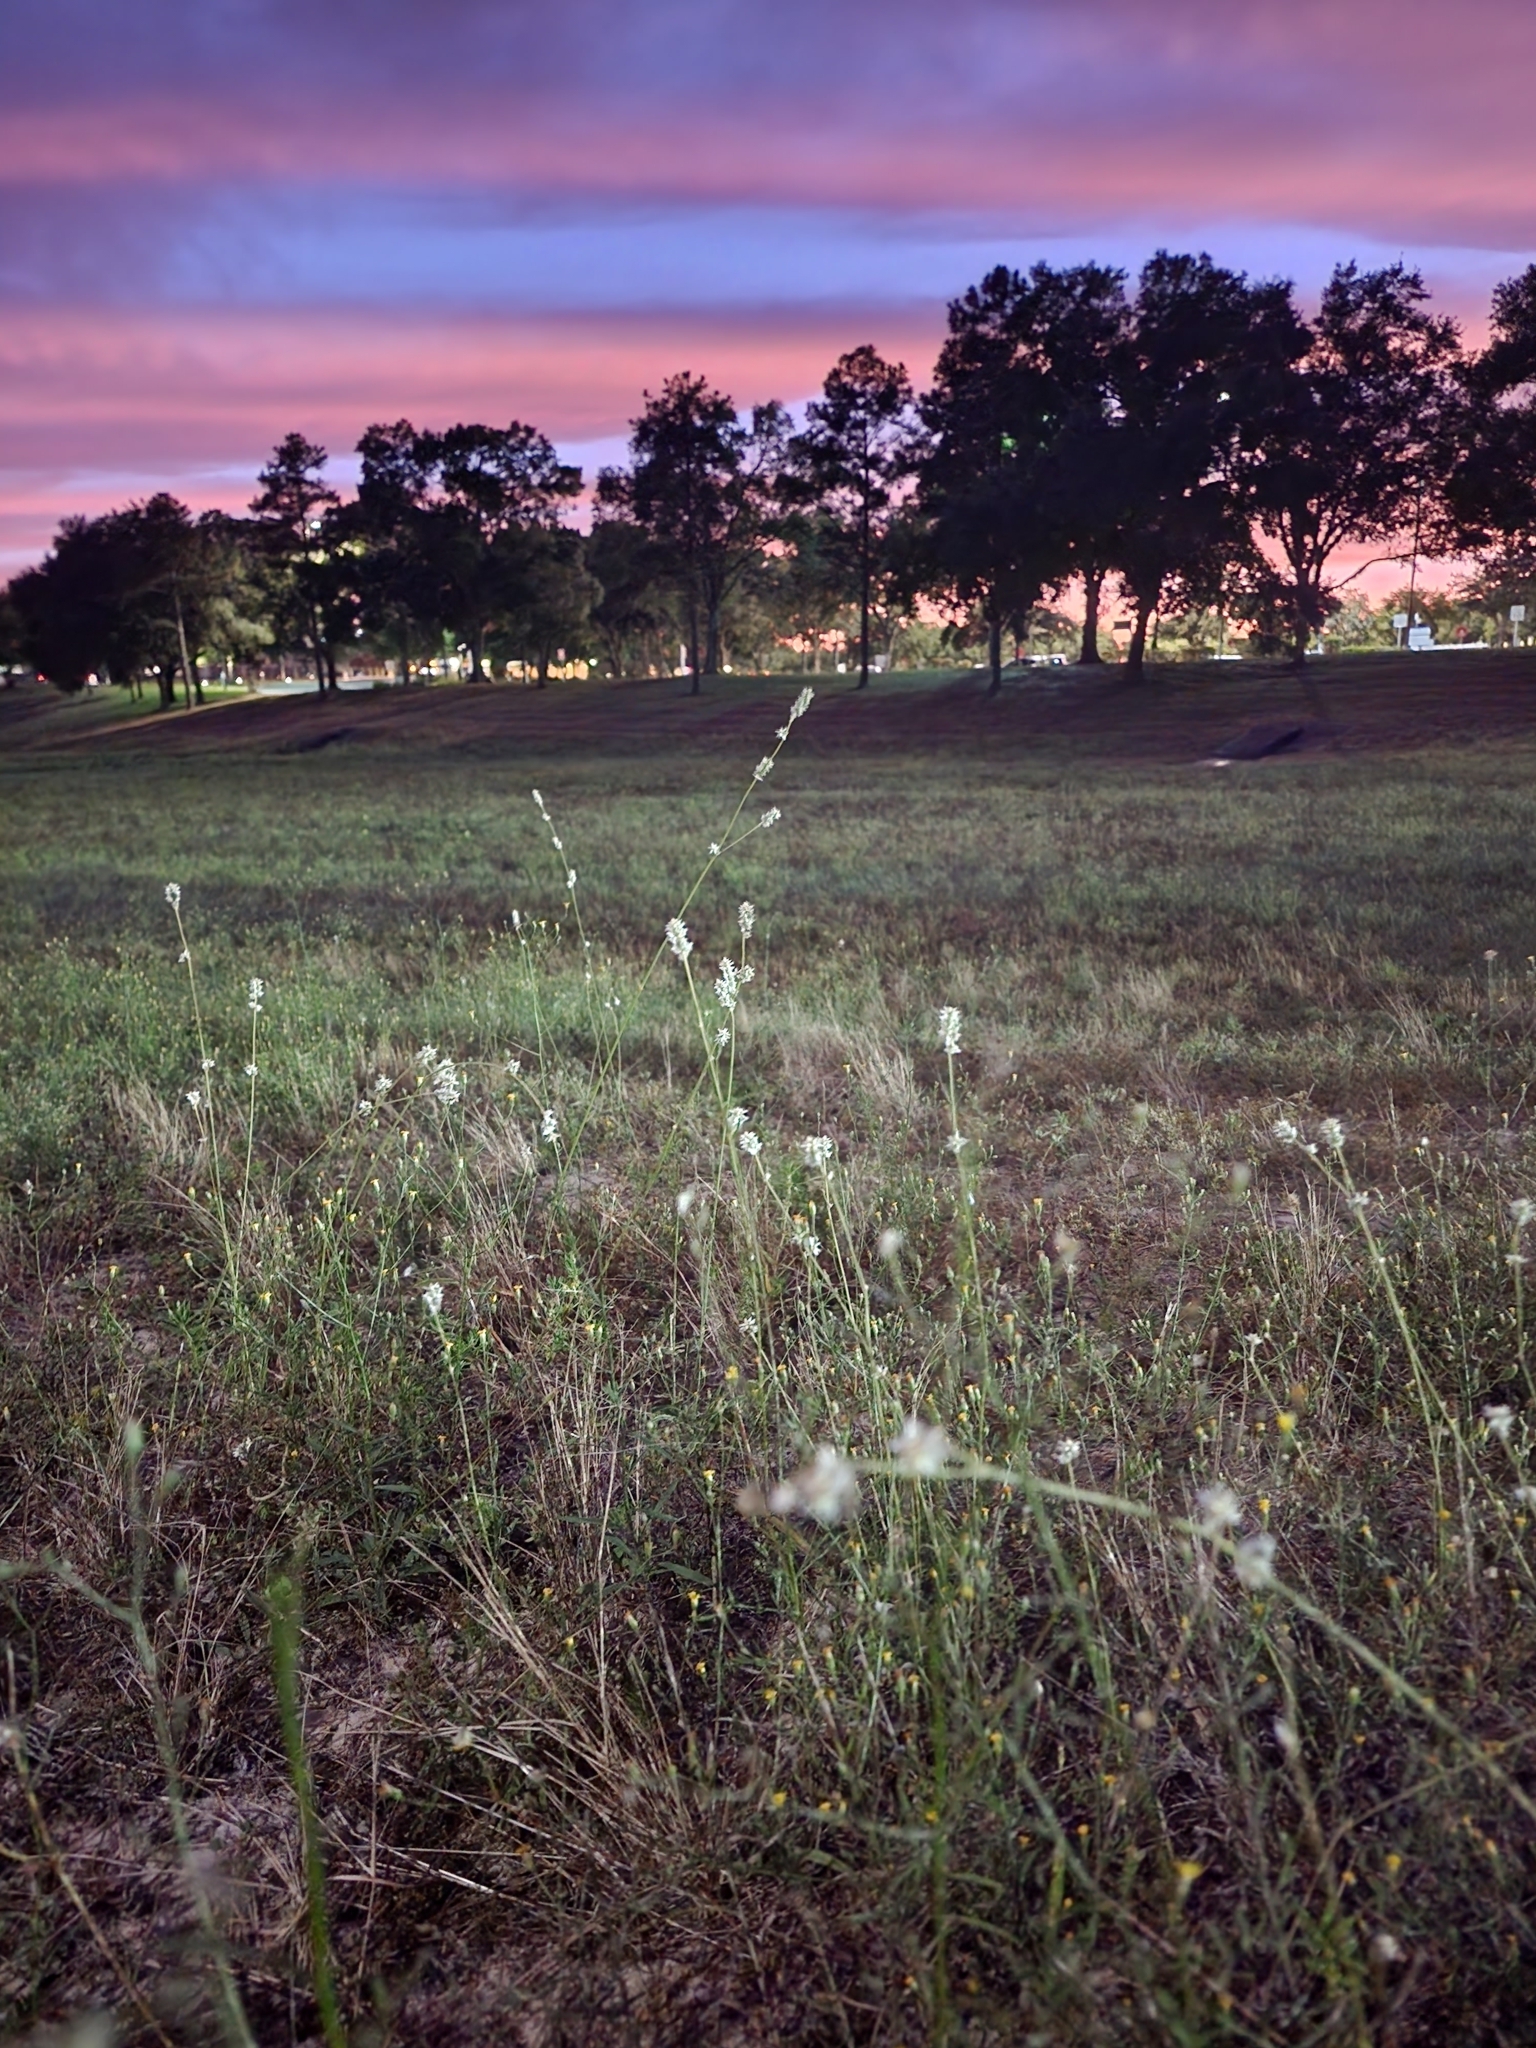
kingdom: Plantae
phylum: Tracheophyta
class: Magnoliopsida
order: Caryophyllales
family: Amaranthaceae
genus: Froelichia
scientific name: Froelichia floridana
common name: Florida snake-cotton
